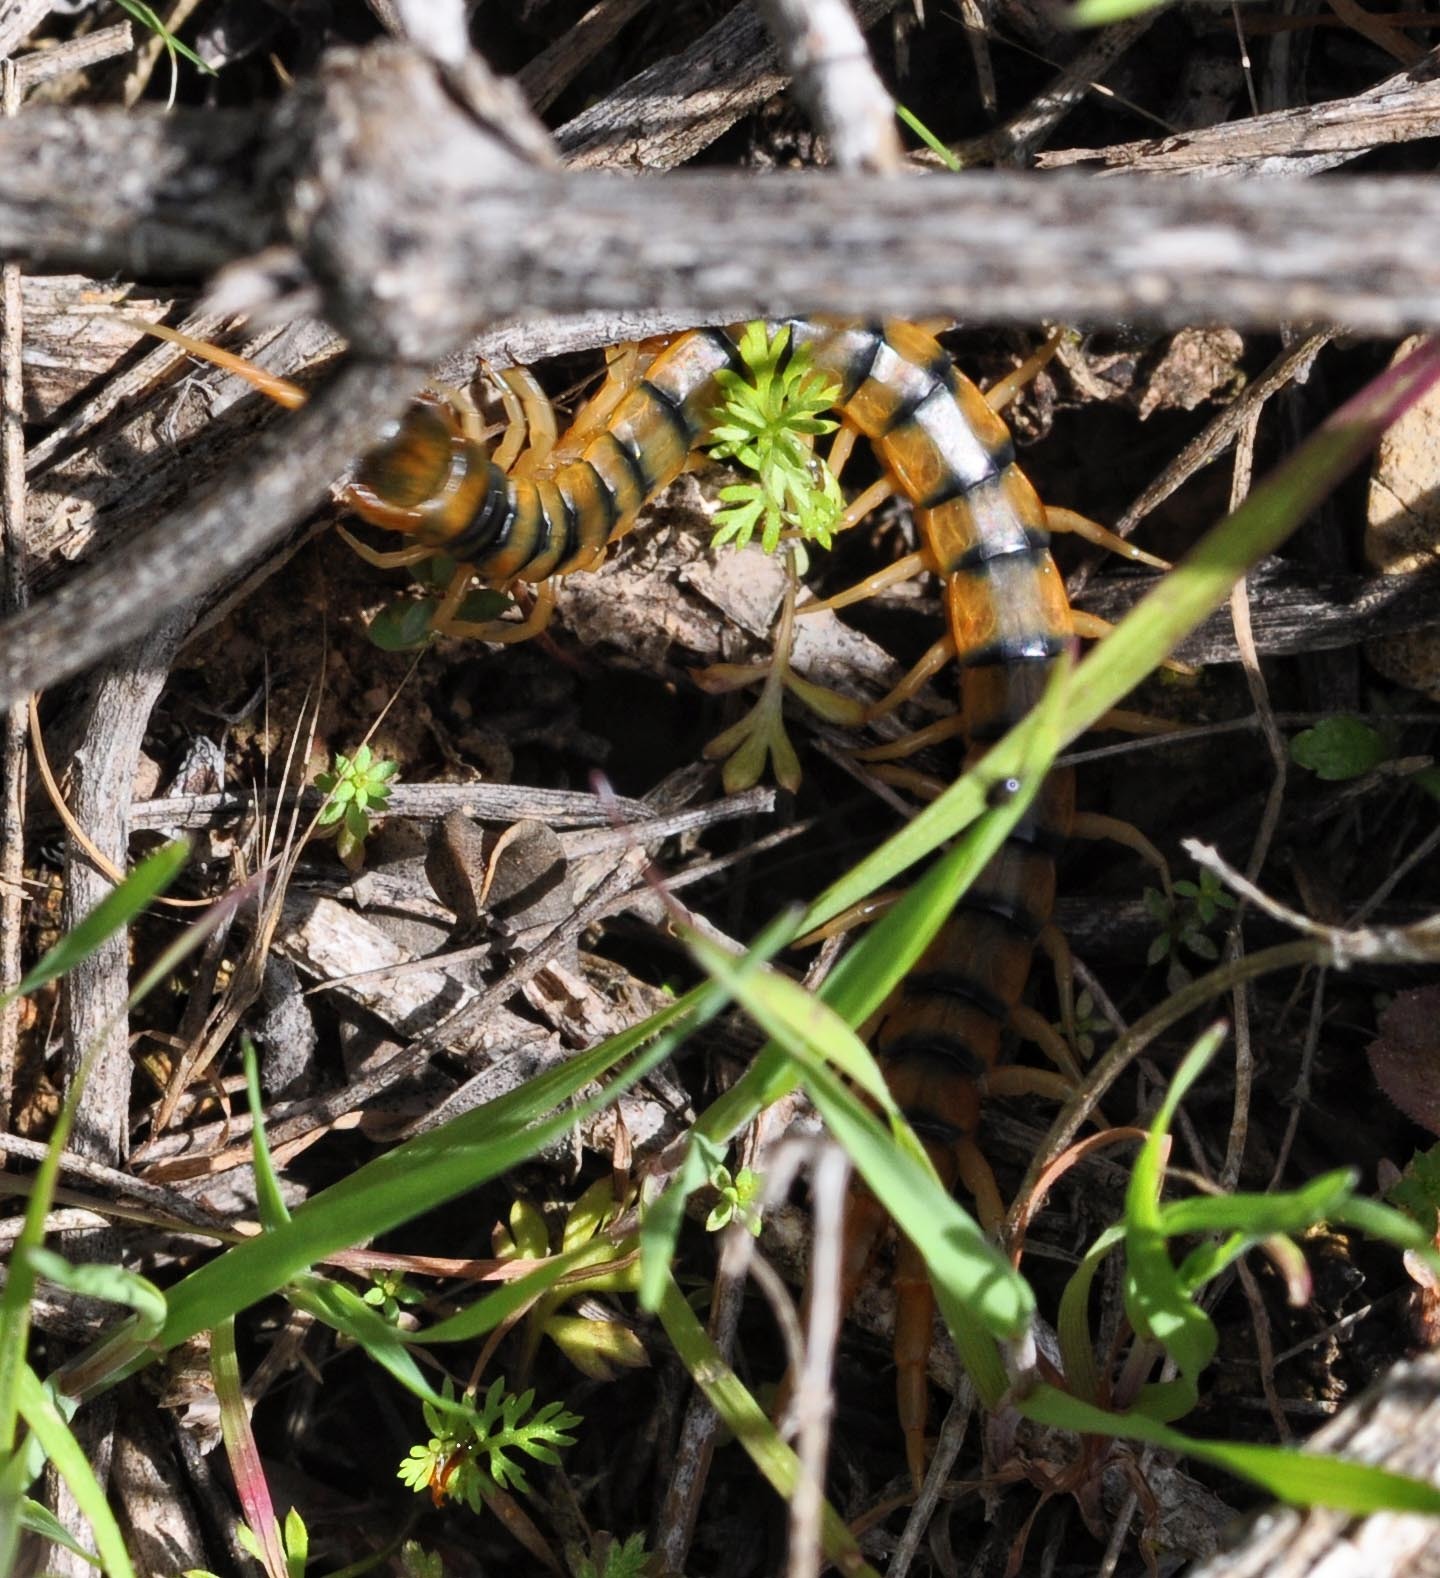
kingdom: Animalia
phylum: Arthropoda
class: Chilopoda
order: Scolopendromorpha
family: Scolopendridae
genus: Scolopendra
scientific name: Scolopendra cingulata
